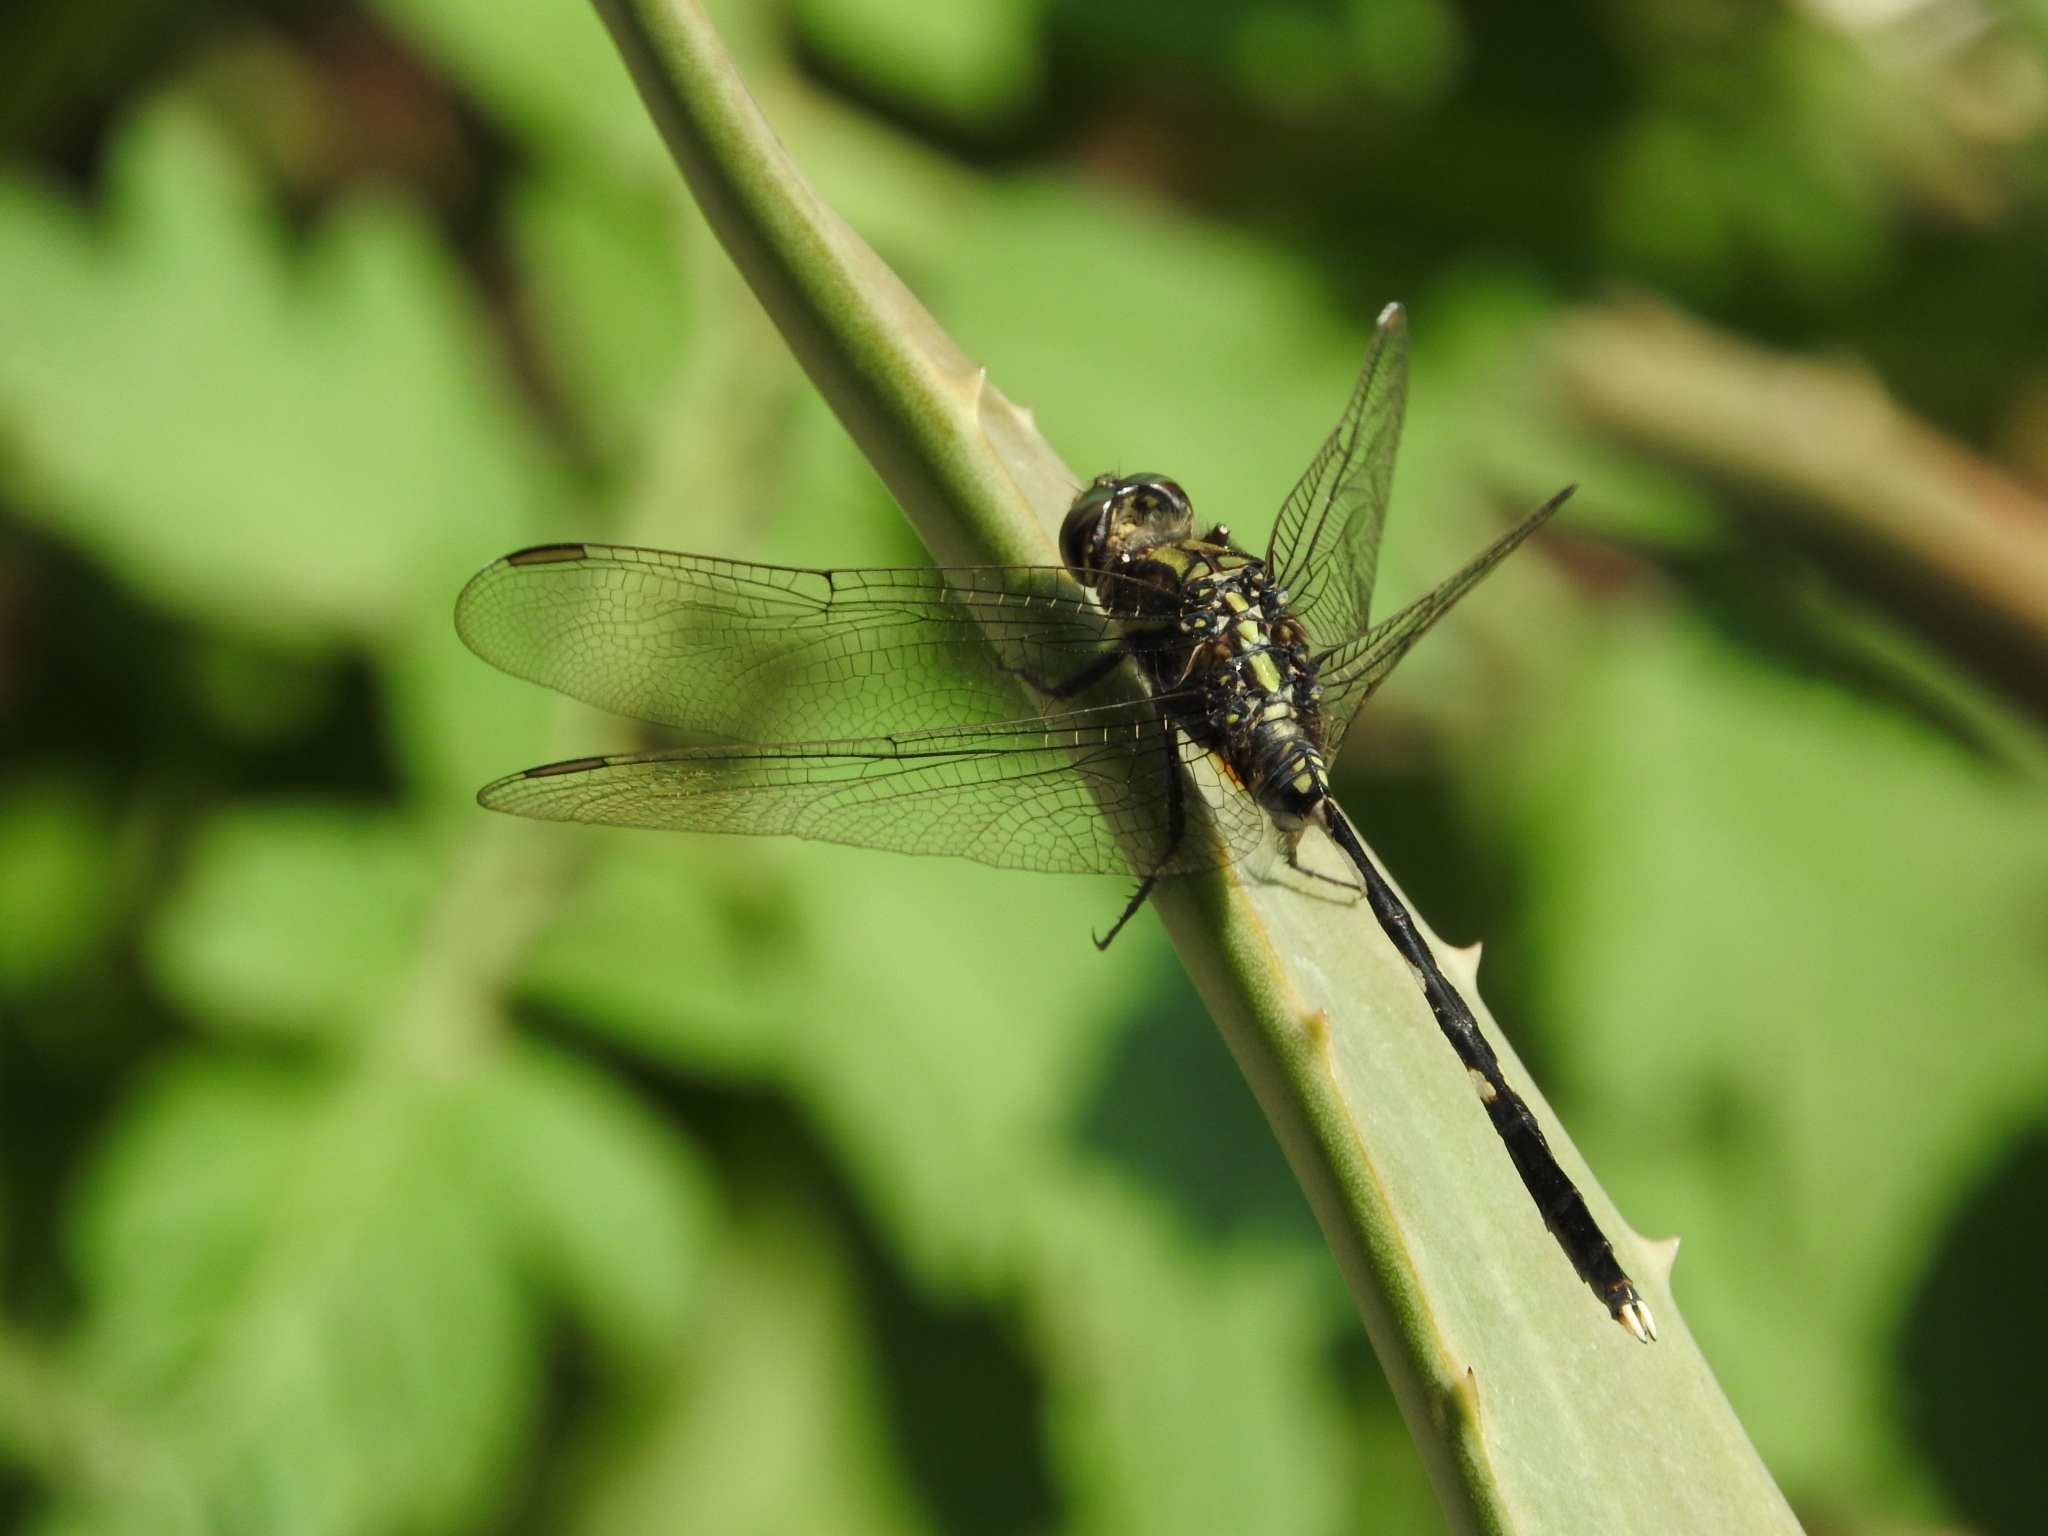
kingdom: Animalia
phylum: Arthropoda
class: Insecta
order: Odonata
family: Libellulidae
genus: Orthetrum
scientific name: Orthetrum sabina
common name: Slender skimmer
